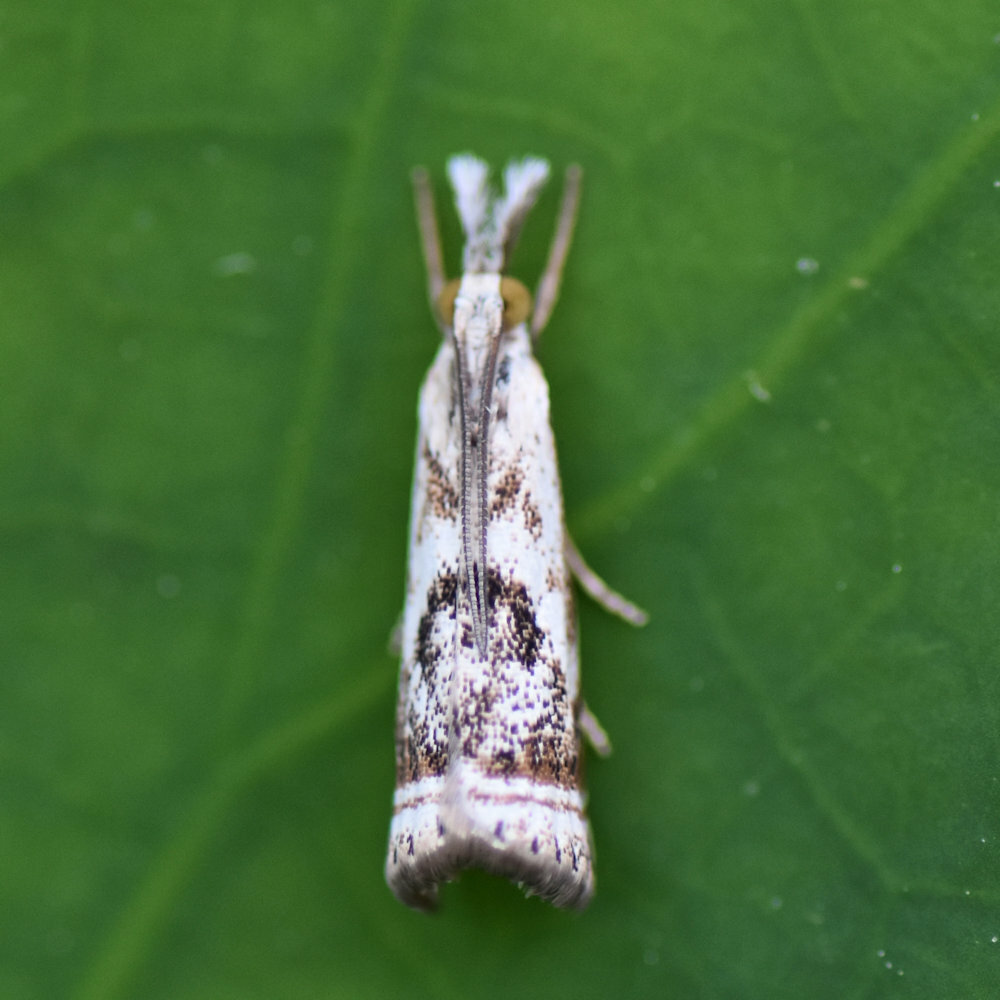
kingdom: Animalia
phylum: Arthropoda
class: Insecta
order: Lepidoptera
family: Crambidae
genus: Microcrambus
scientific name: Microcrambus elegans
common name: Elegant grass-veneer
